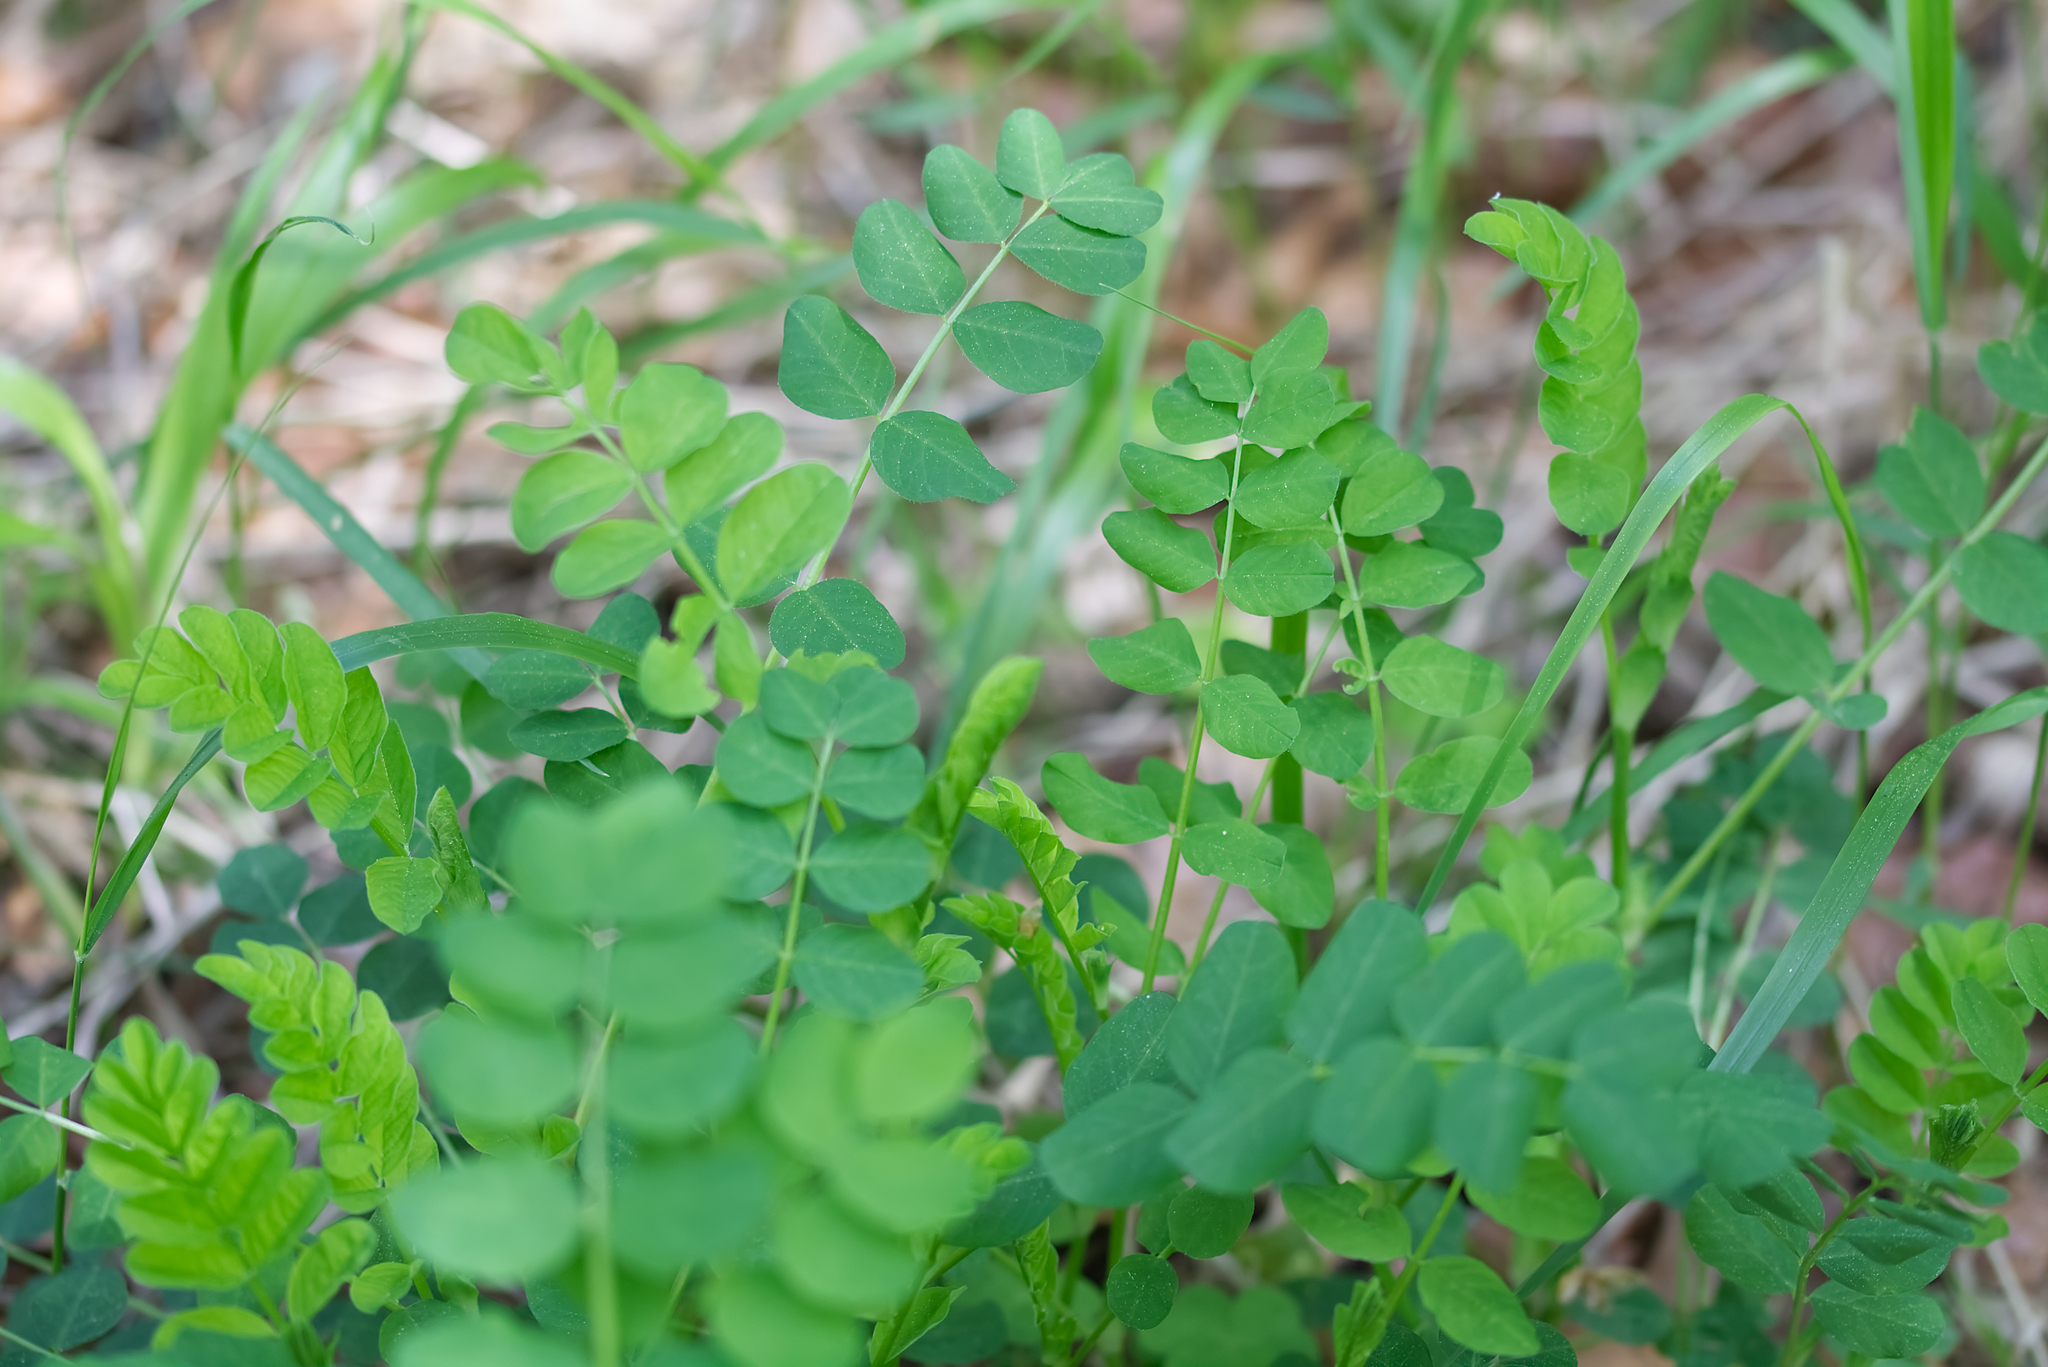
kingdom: Plantae
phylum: Tracheophyta
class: Magnoliopsida
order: Fabales
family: Fabaceae
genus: Astragalus
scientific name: Astragalus glycyphyllos
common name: Wild liquorice
